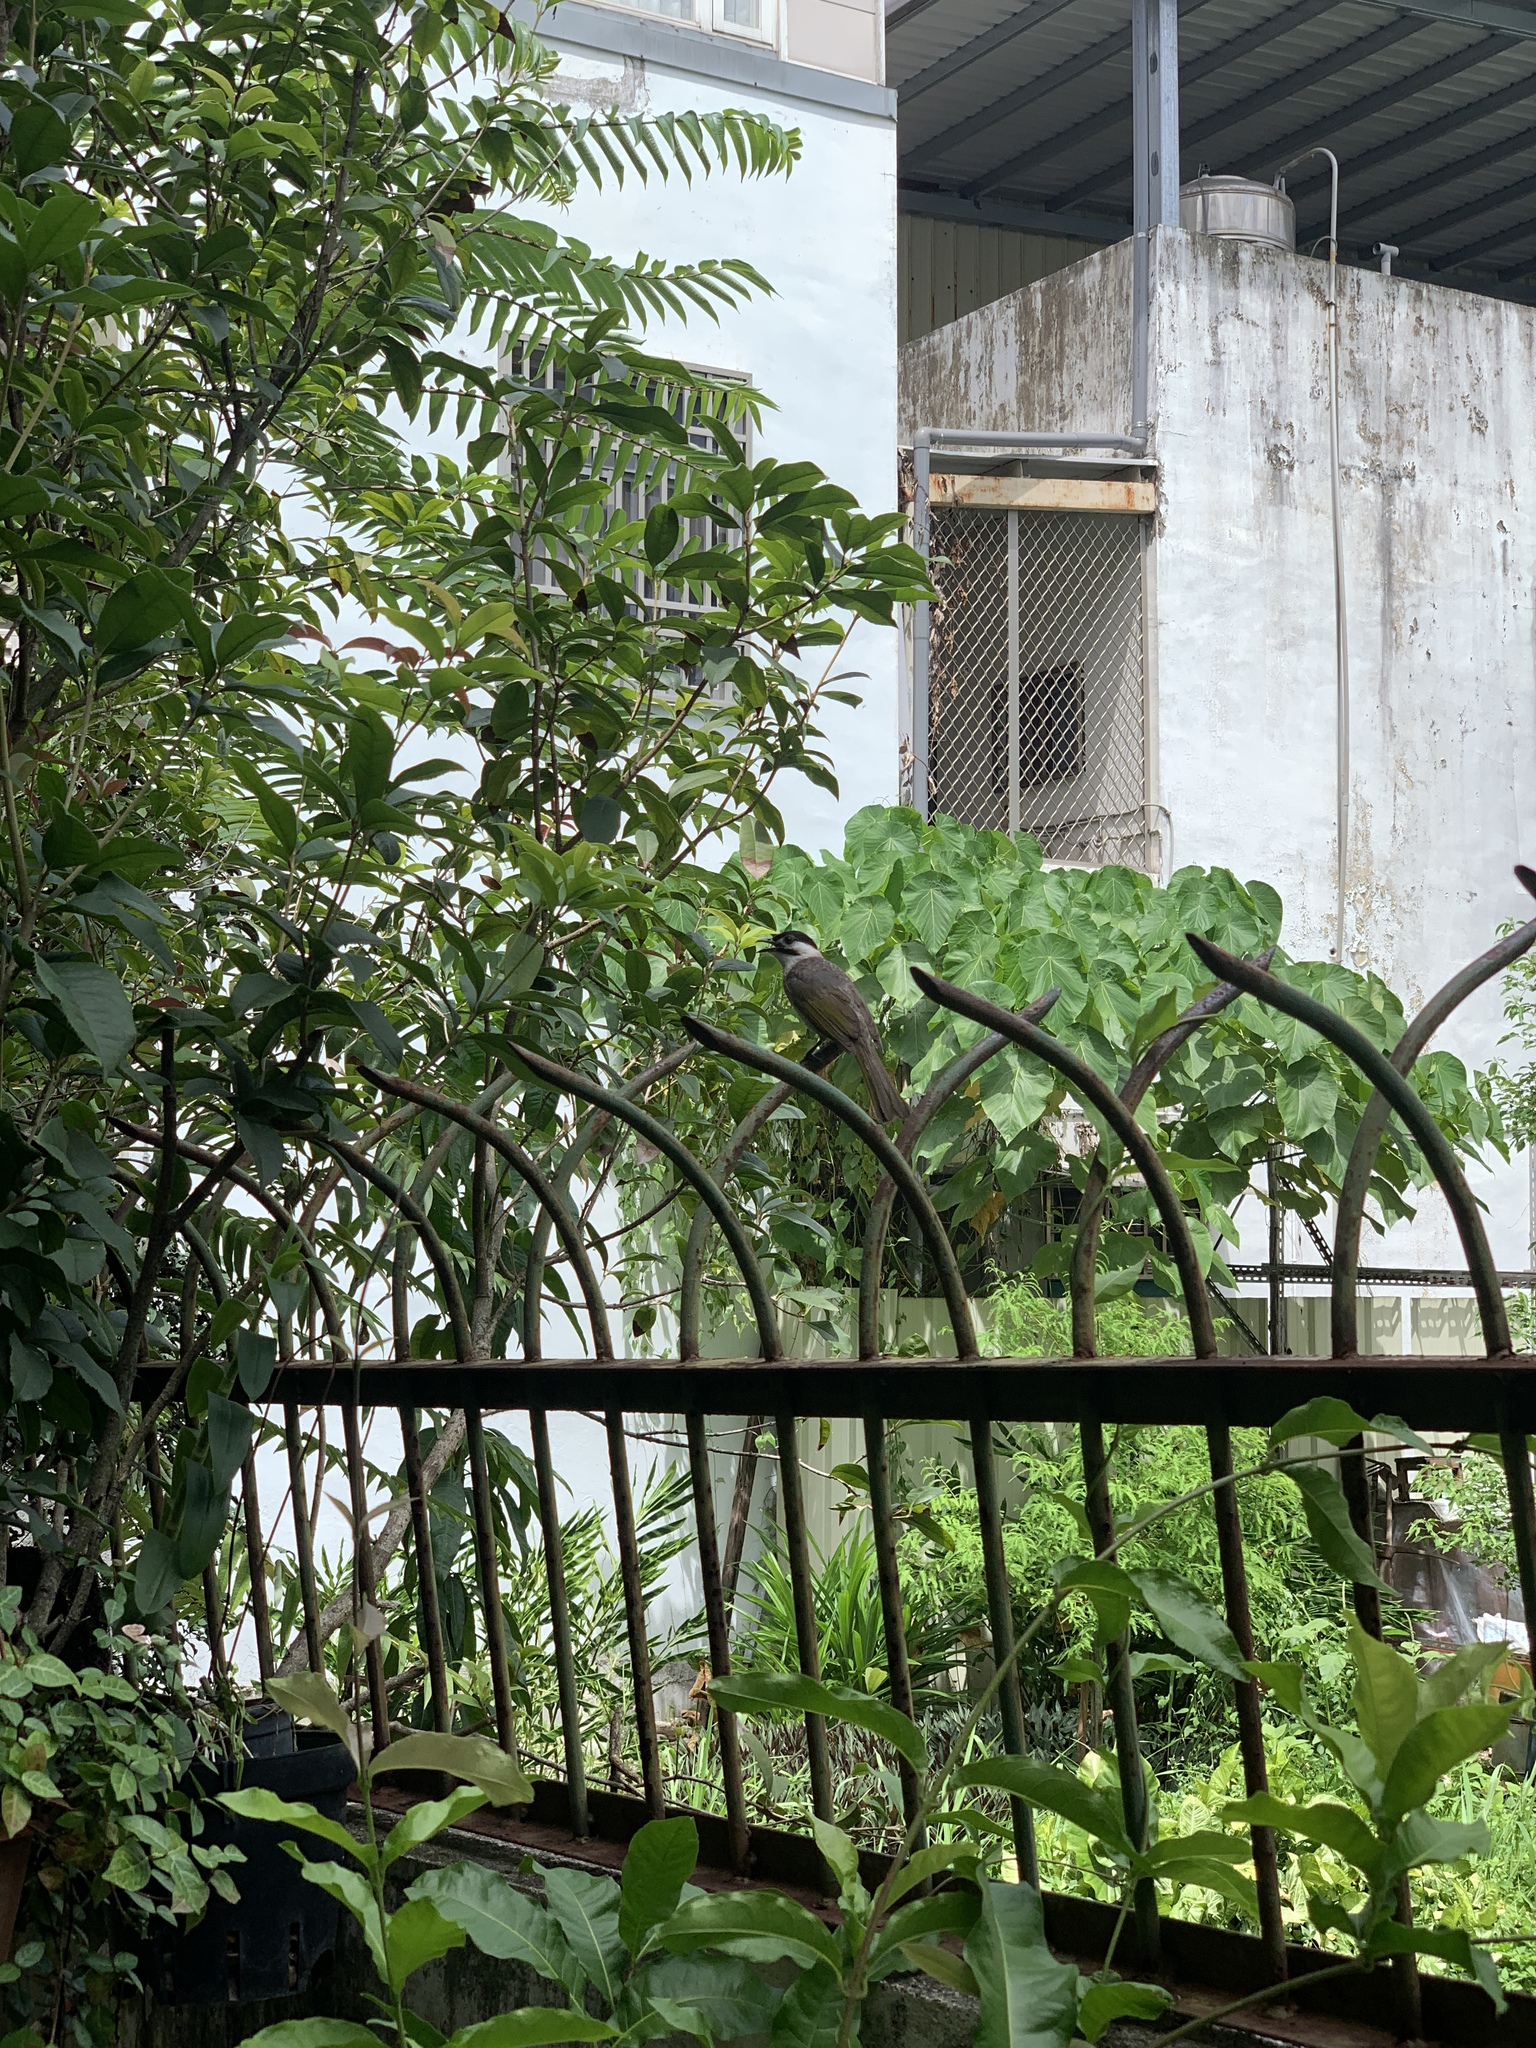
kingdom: Animalia
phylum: Chordata
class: Aves
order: Passeriformes
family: Pycnonotidae
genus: Pycnonotus
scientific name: Pycnonotus taivanus
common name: Styan's bulbul
